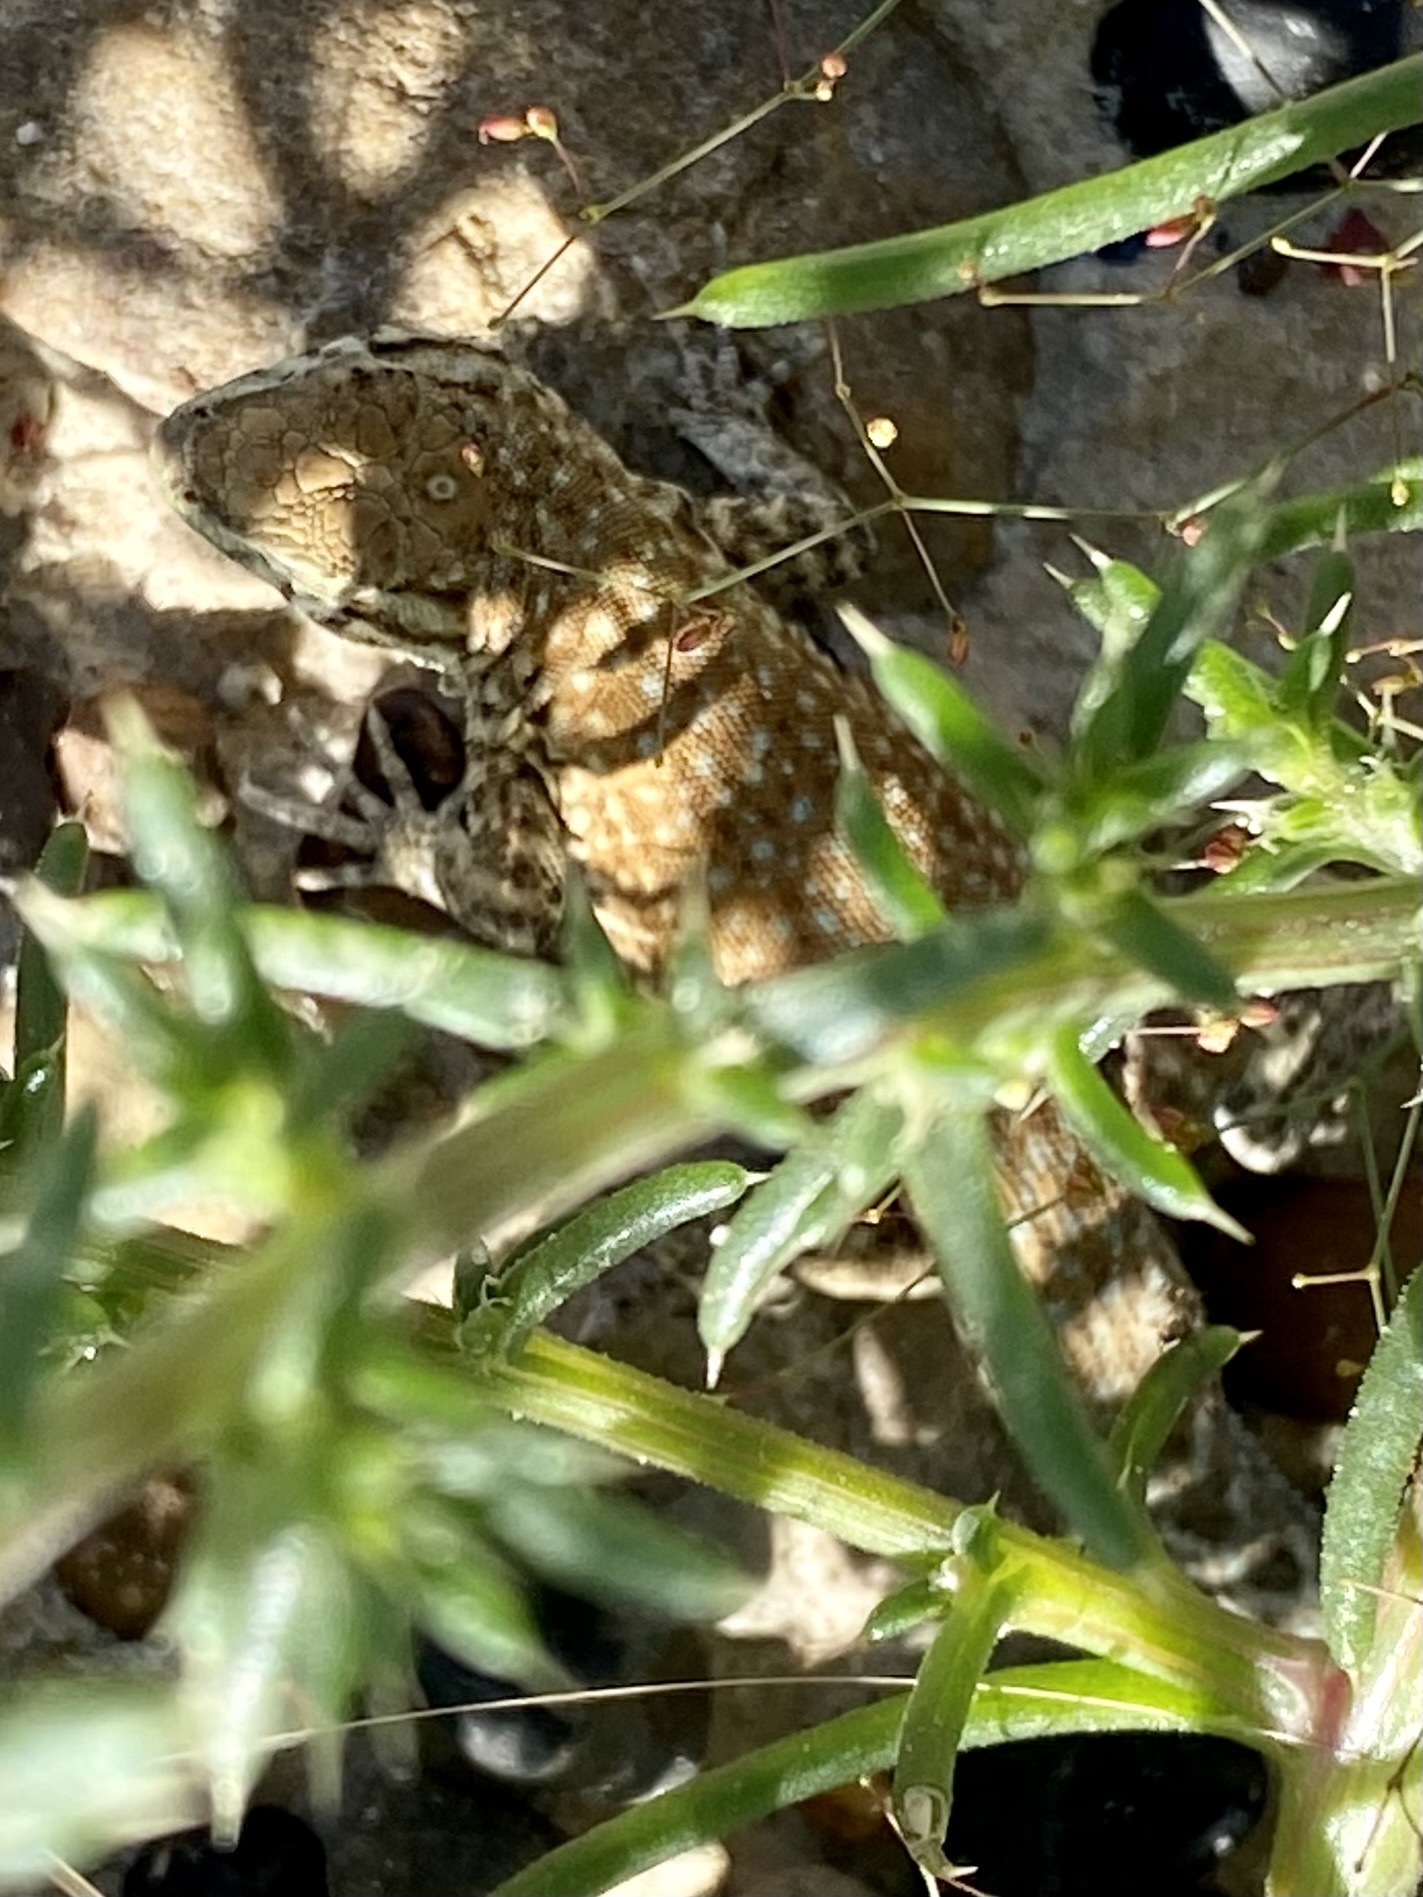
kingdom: Animalia
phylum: Chordata
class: Squamata
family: Phrynosomatidae
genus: Uta
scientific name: Uta stansburiana
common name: Side-blotched lizard
